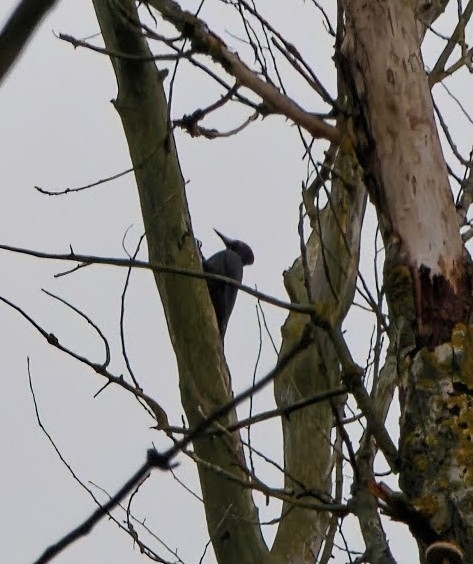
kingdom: Animalia
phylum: Chordata
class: Aves
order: Piciformes
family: Picidae
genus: Dryocopus
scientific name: Dryocopus martius
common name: Black woodpecker
